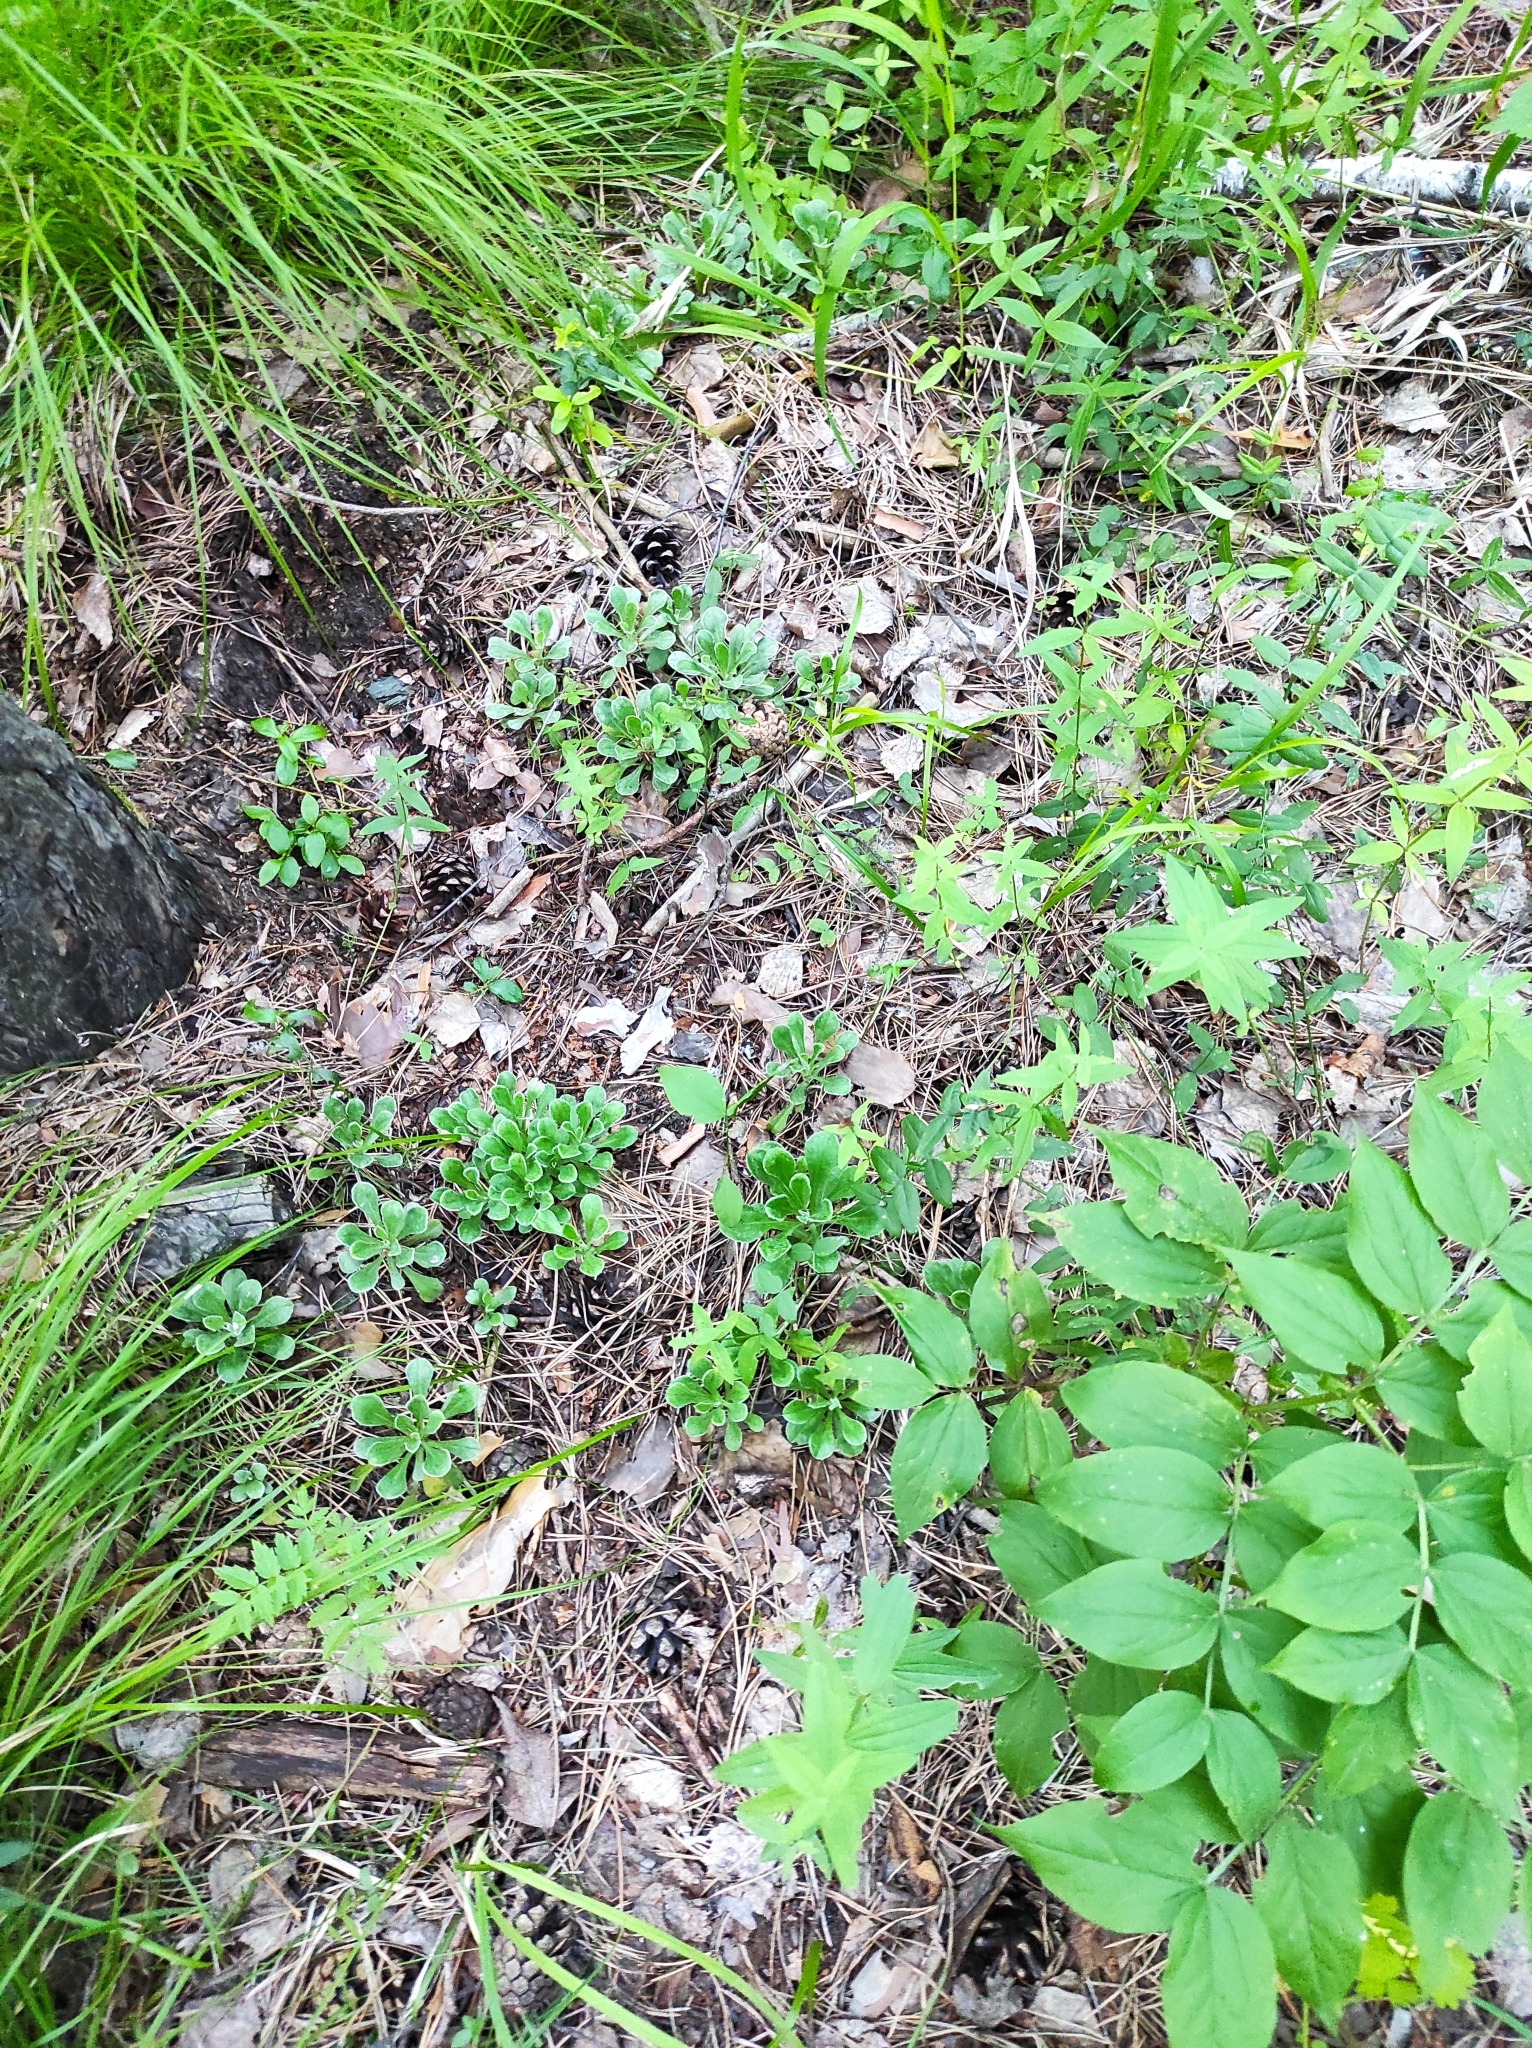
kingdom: Plantae
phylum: Tracheophyta
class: Magnoliopsida
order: Asterales
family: Asteraceae
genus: Antennaria
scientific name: Antennaria dioica
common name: Mountain everlasting
